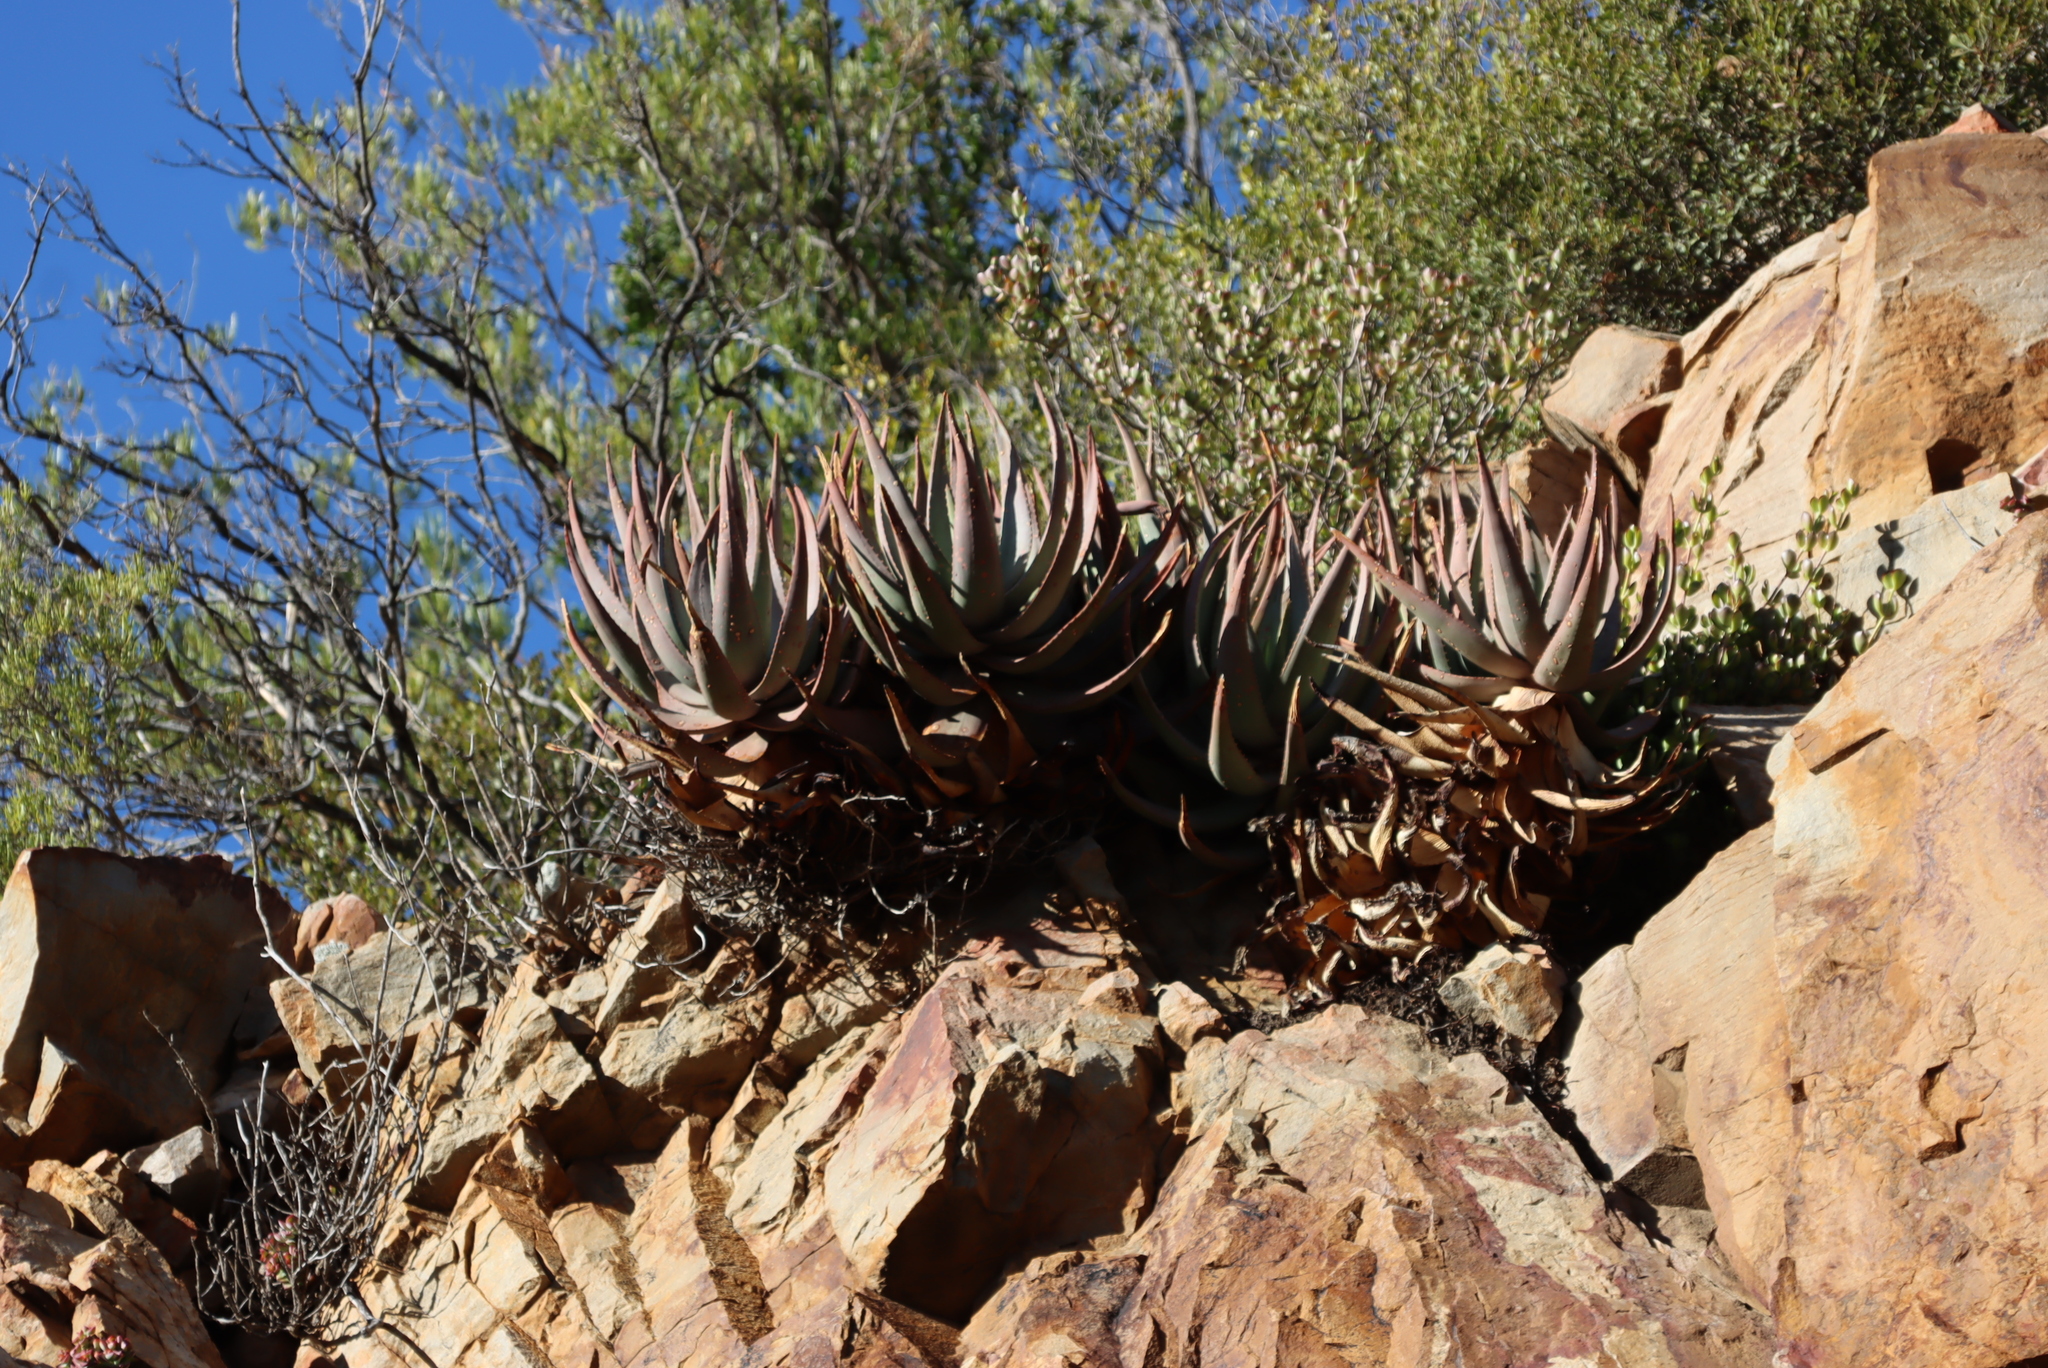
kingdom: Plantae
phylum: Tracheophyta
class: Liliopsida
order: Asparagales
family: Asphodelaceae
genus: Aloe
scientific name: Aloe comptonii
